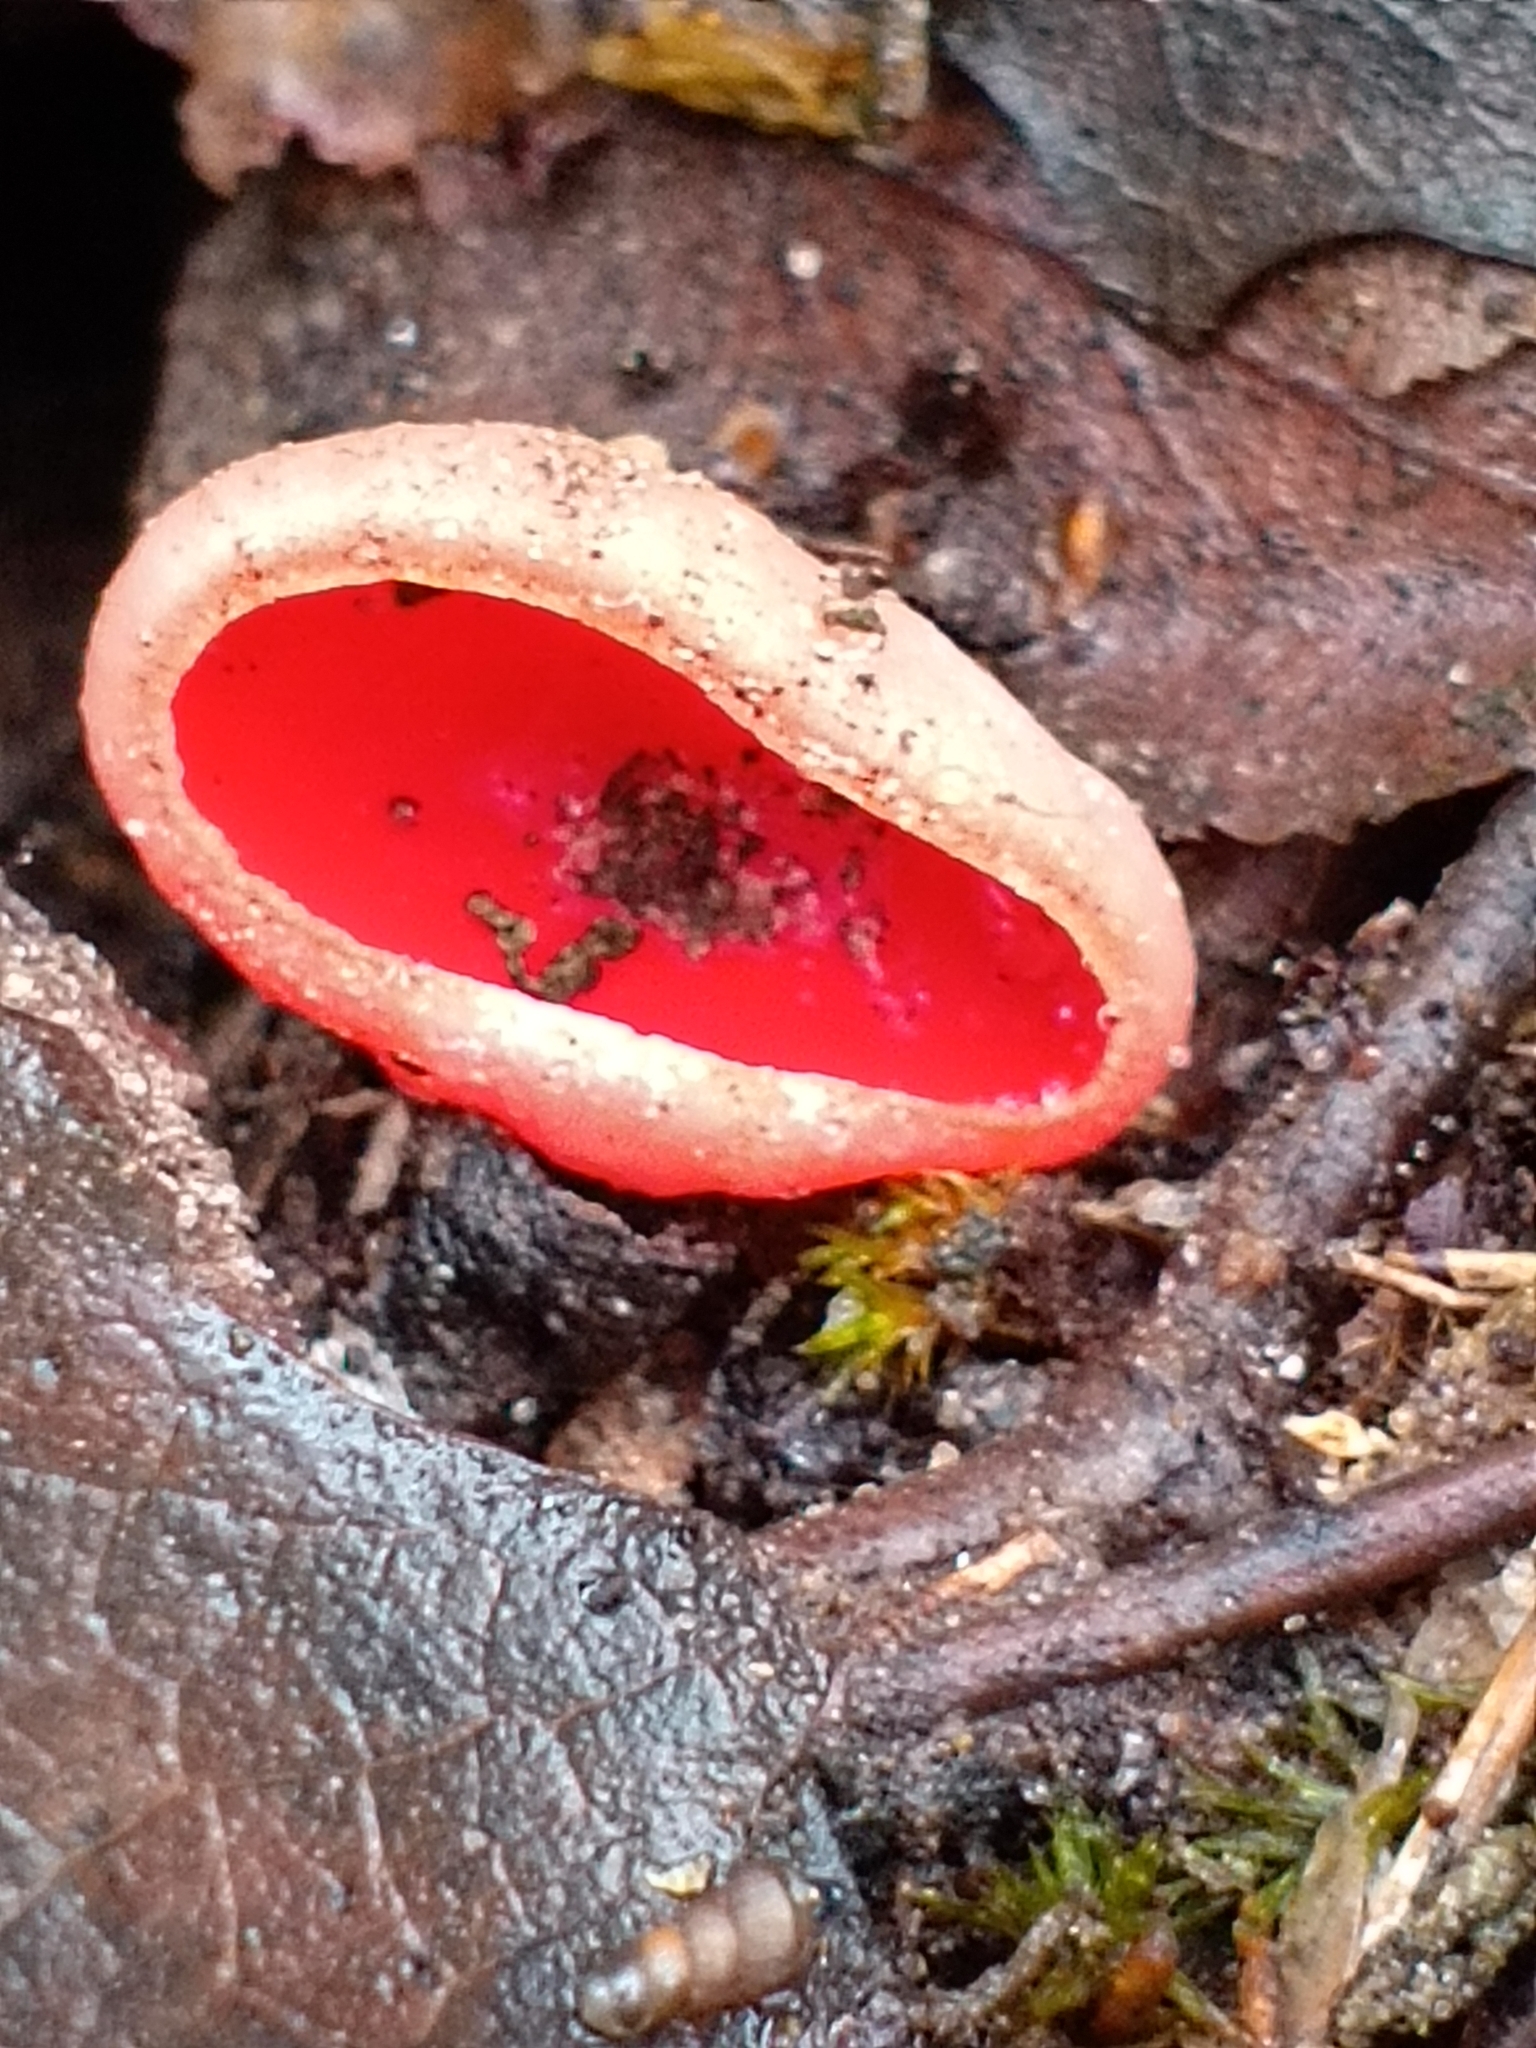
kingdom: Fungi
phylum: Ascomycota
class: Pezizomycetes
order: Pezizales
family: Sarcoscyphaceae
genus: Sarcoscypha
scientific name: Sarcoscypha austriaca
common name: Scarlet elfcup
